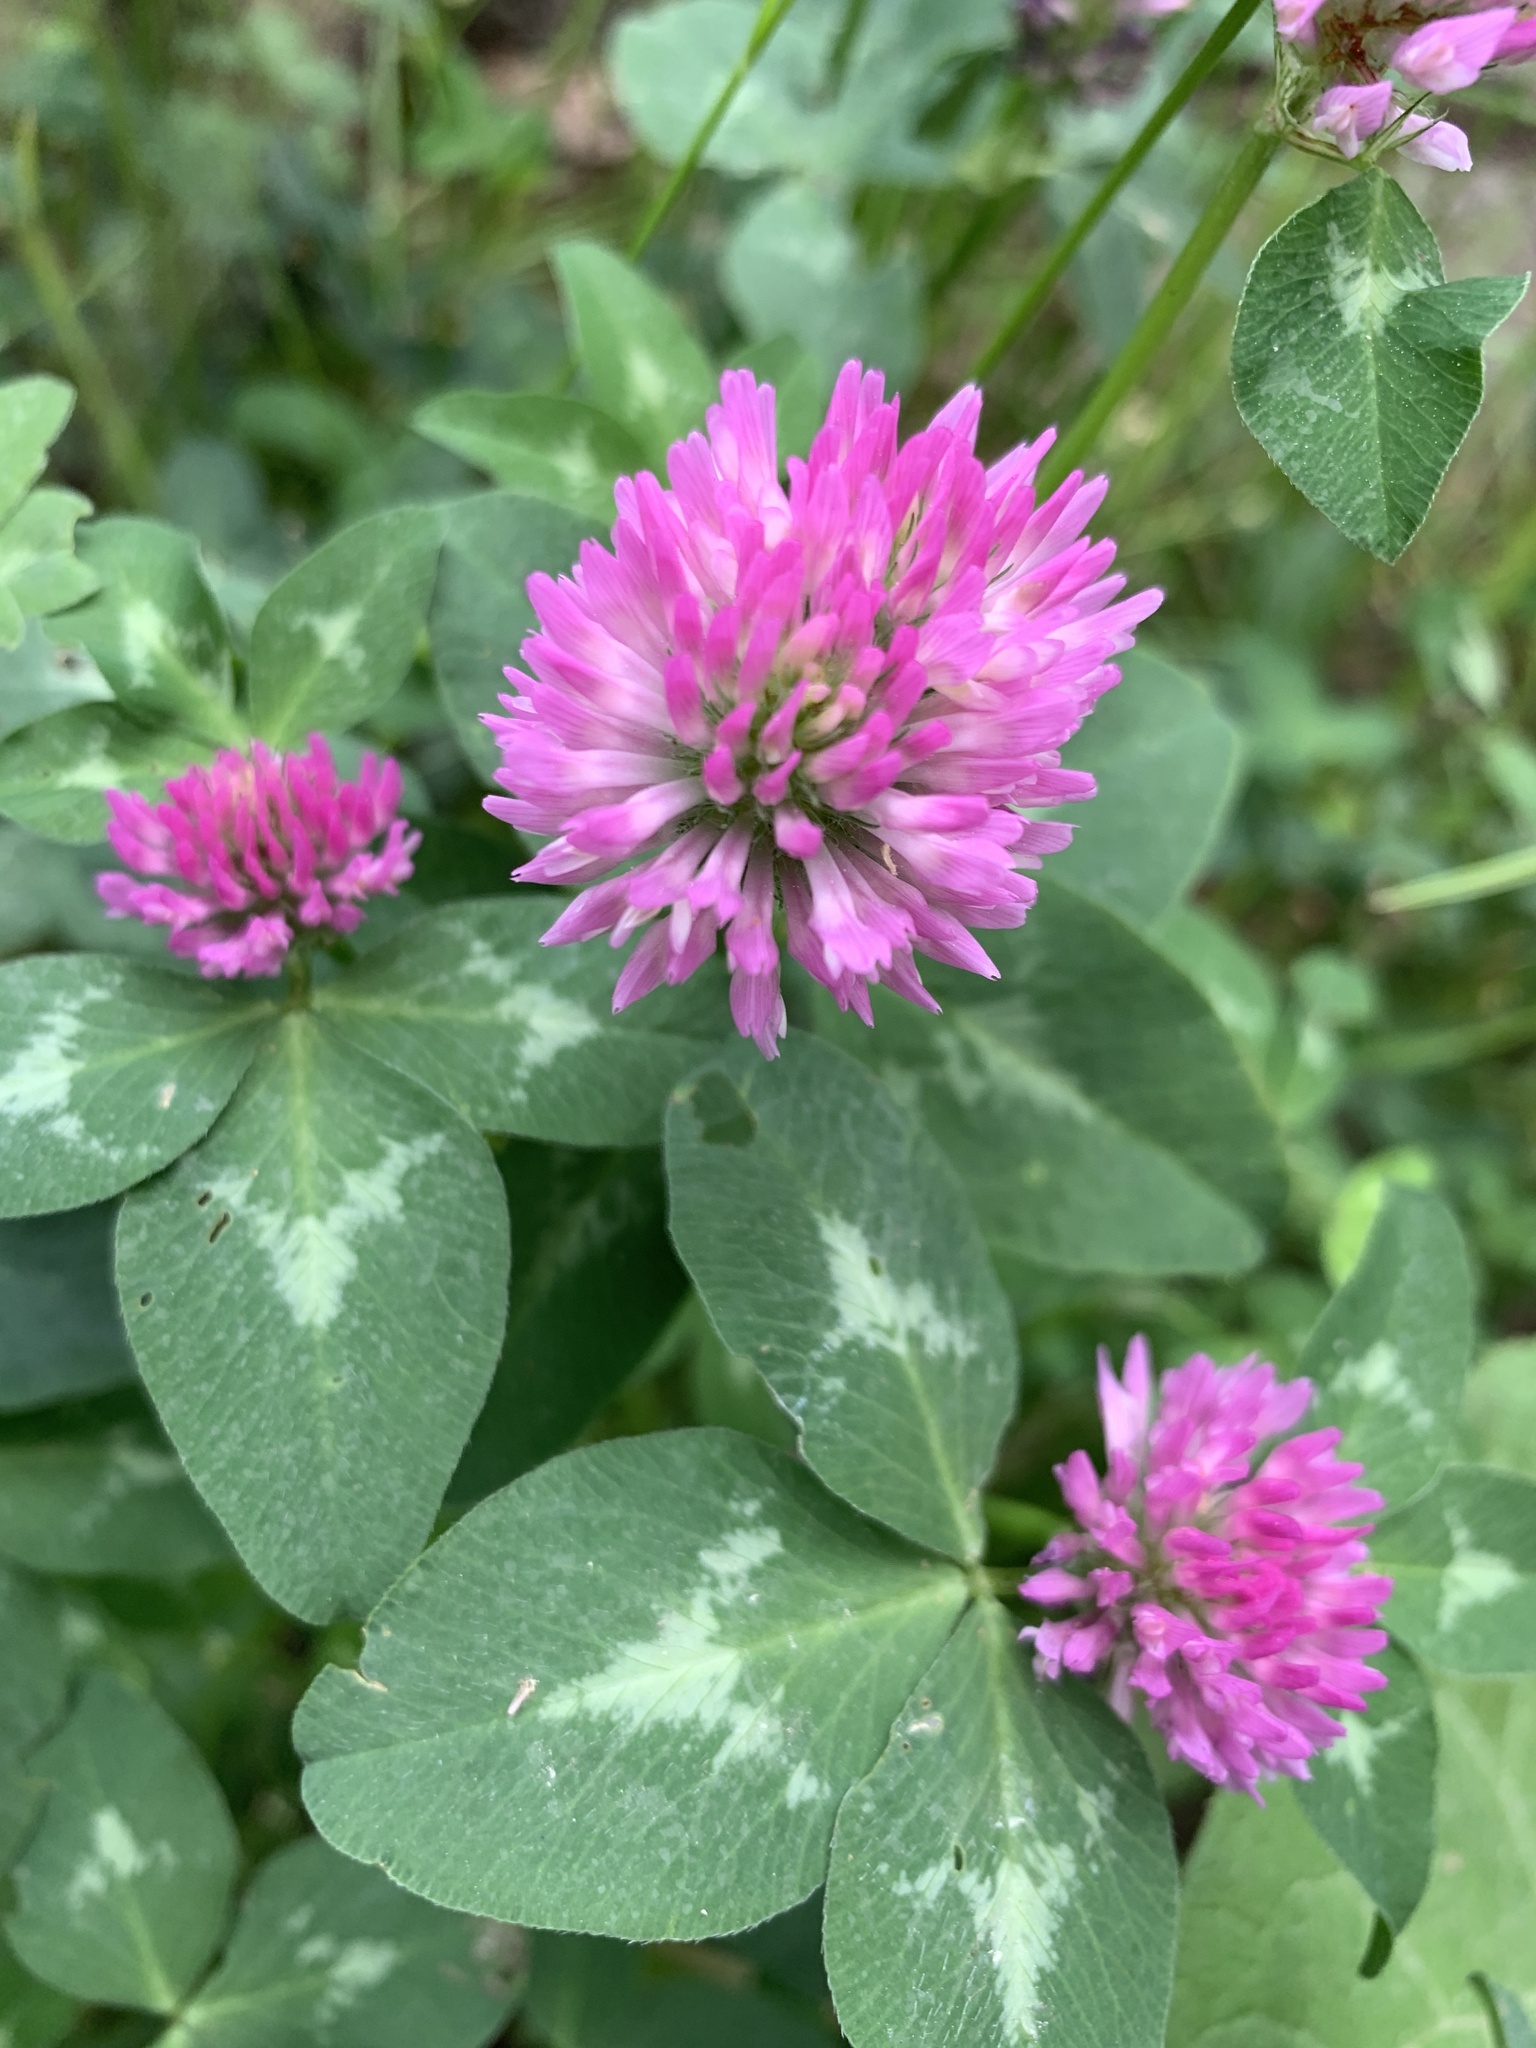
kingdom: Plantae
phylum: Tracheophyta
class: Magnoliopsida
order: Fabales
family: Fabaceae
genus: Trifolium
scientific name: Trifolium pratense
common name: Red clover
